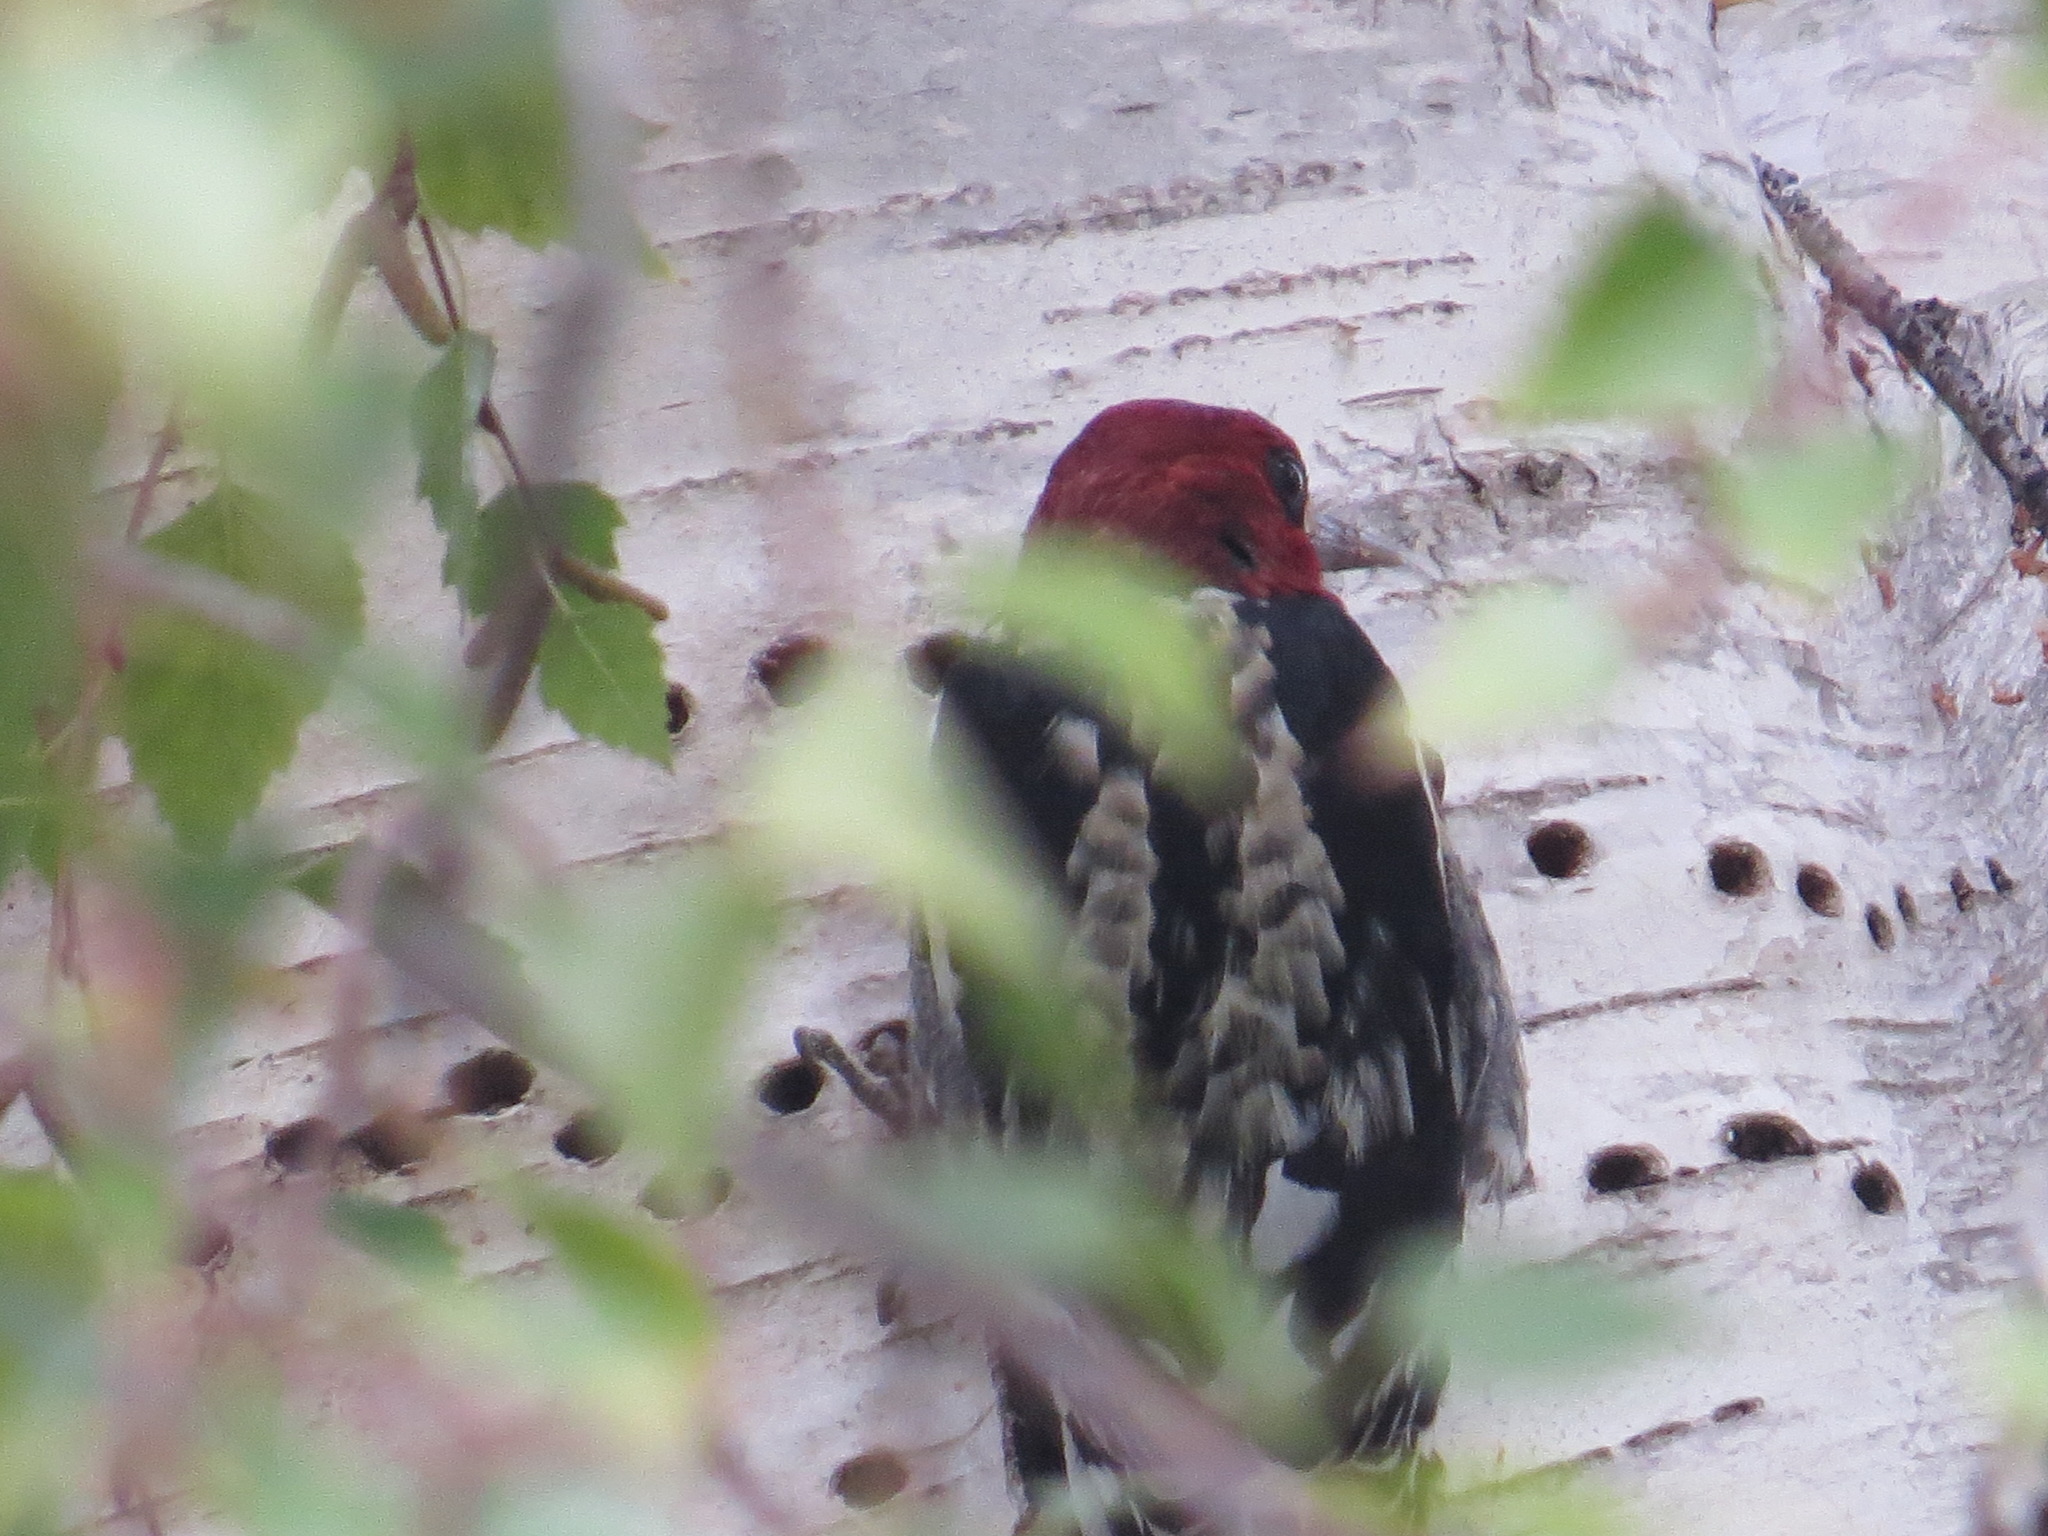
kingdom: Animalia
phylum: Chordata
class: Aves
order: Piciformes
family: Picidae
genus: Sphyrapicus
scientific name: Sphyrapicus ruber
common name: Red-breasted sapsucker
